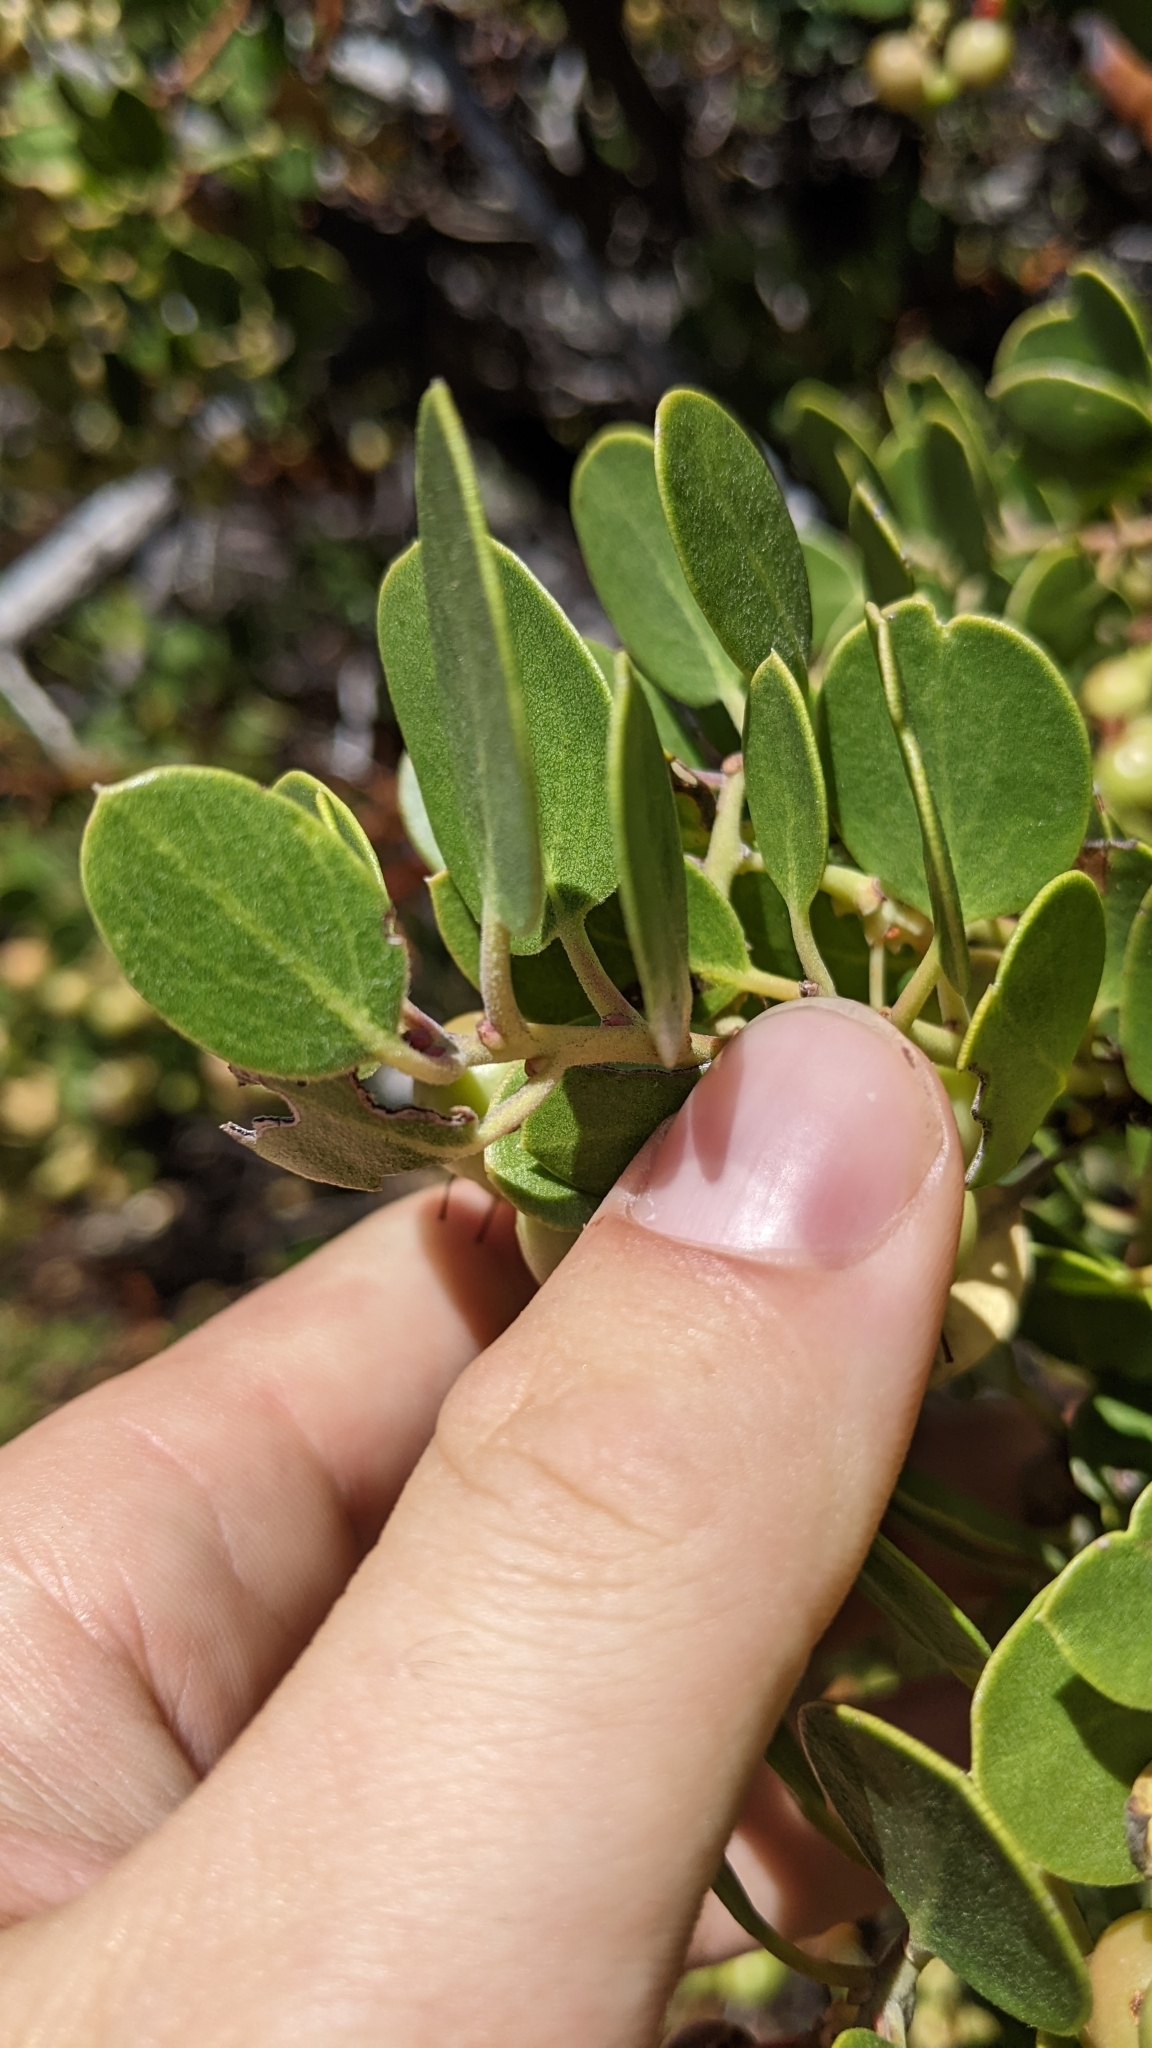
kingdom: Plantae
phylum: Tracheophyta
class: Magnoliopsida
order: Ericales
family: Ericaceae
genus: Arctostaphylos
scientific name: Arctostaphylos parryana
